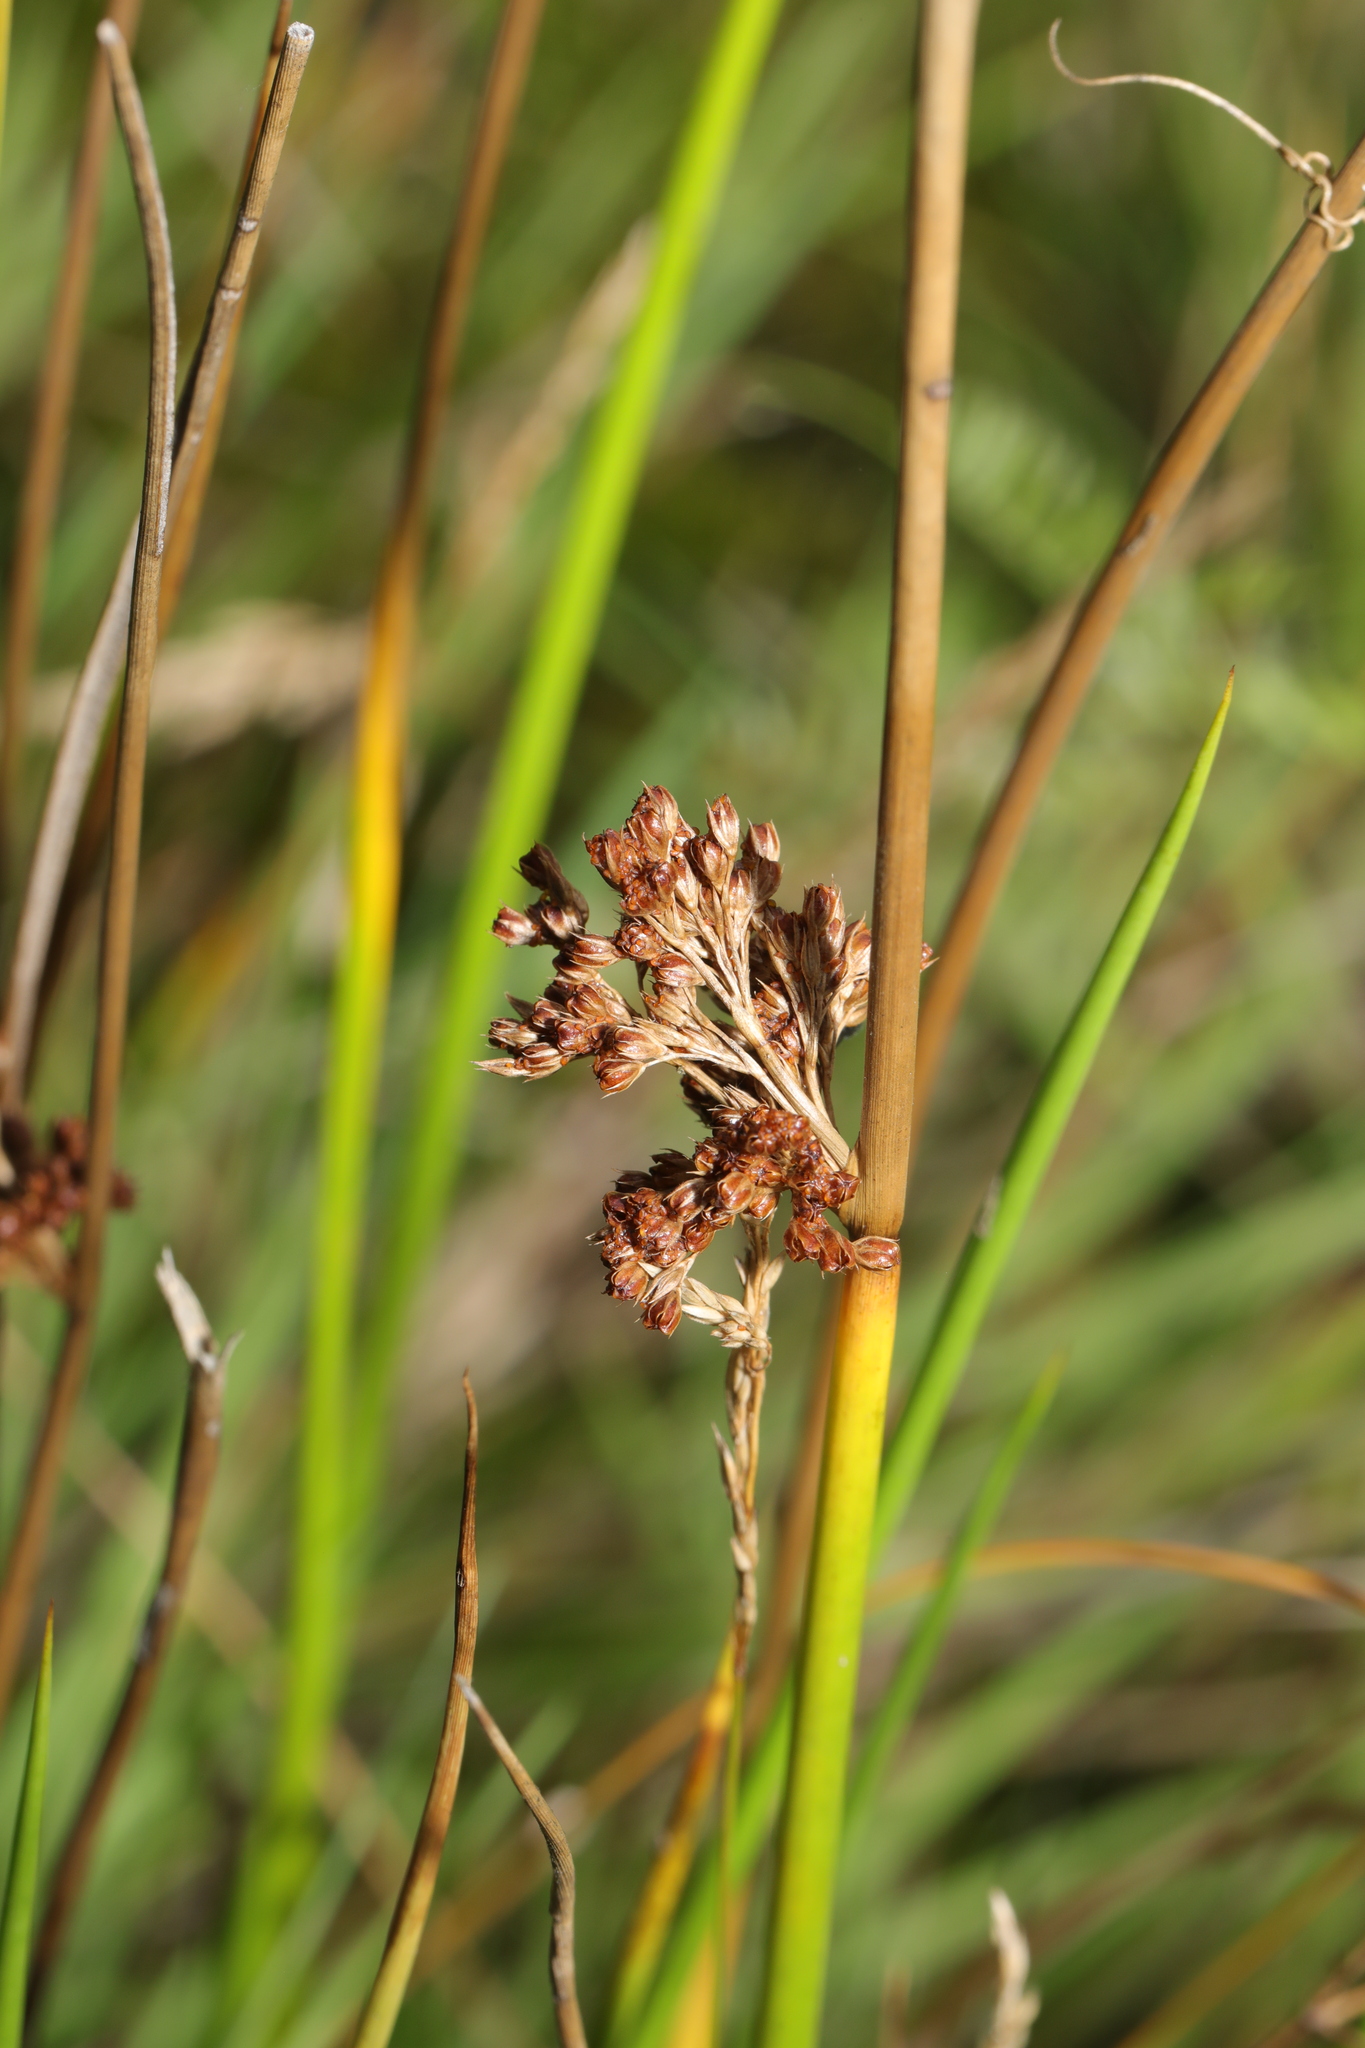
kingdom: Plantae
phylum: Tracheophyta
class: Liliopsida
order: Poales
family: Juncaceae
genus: Juncus
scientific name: Juncus effusus
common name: Soft rush
